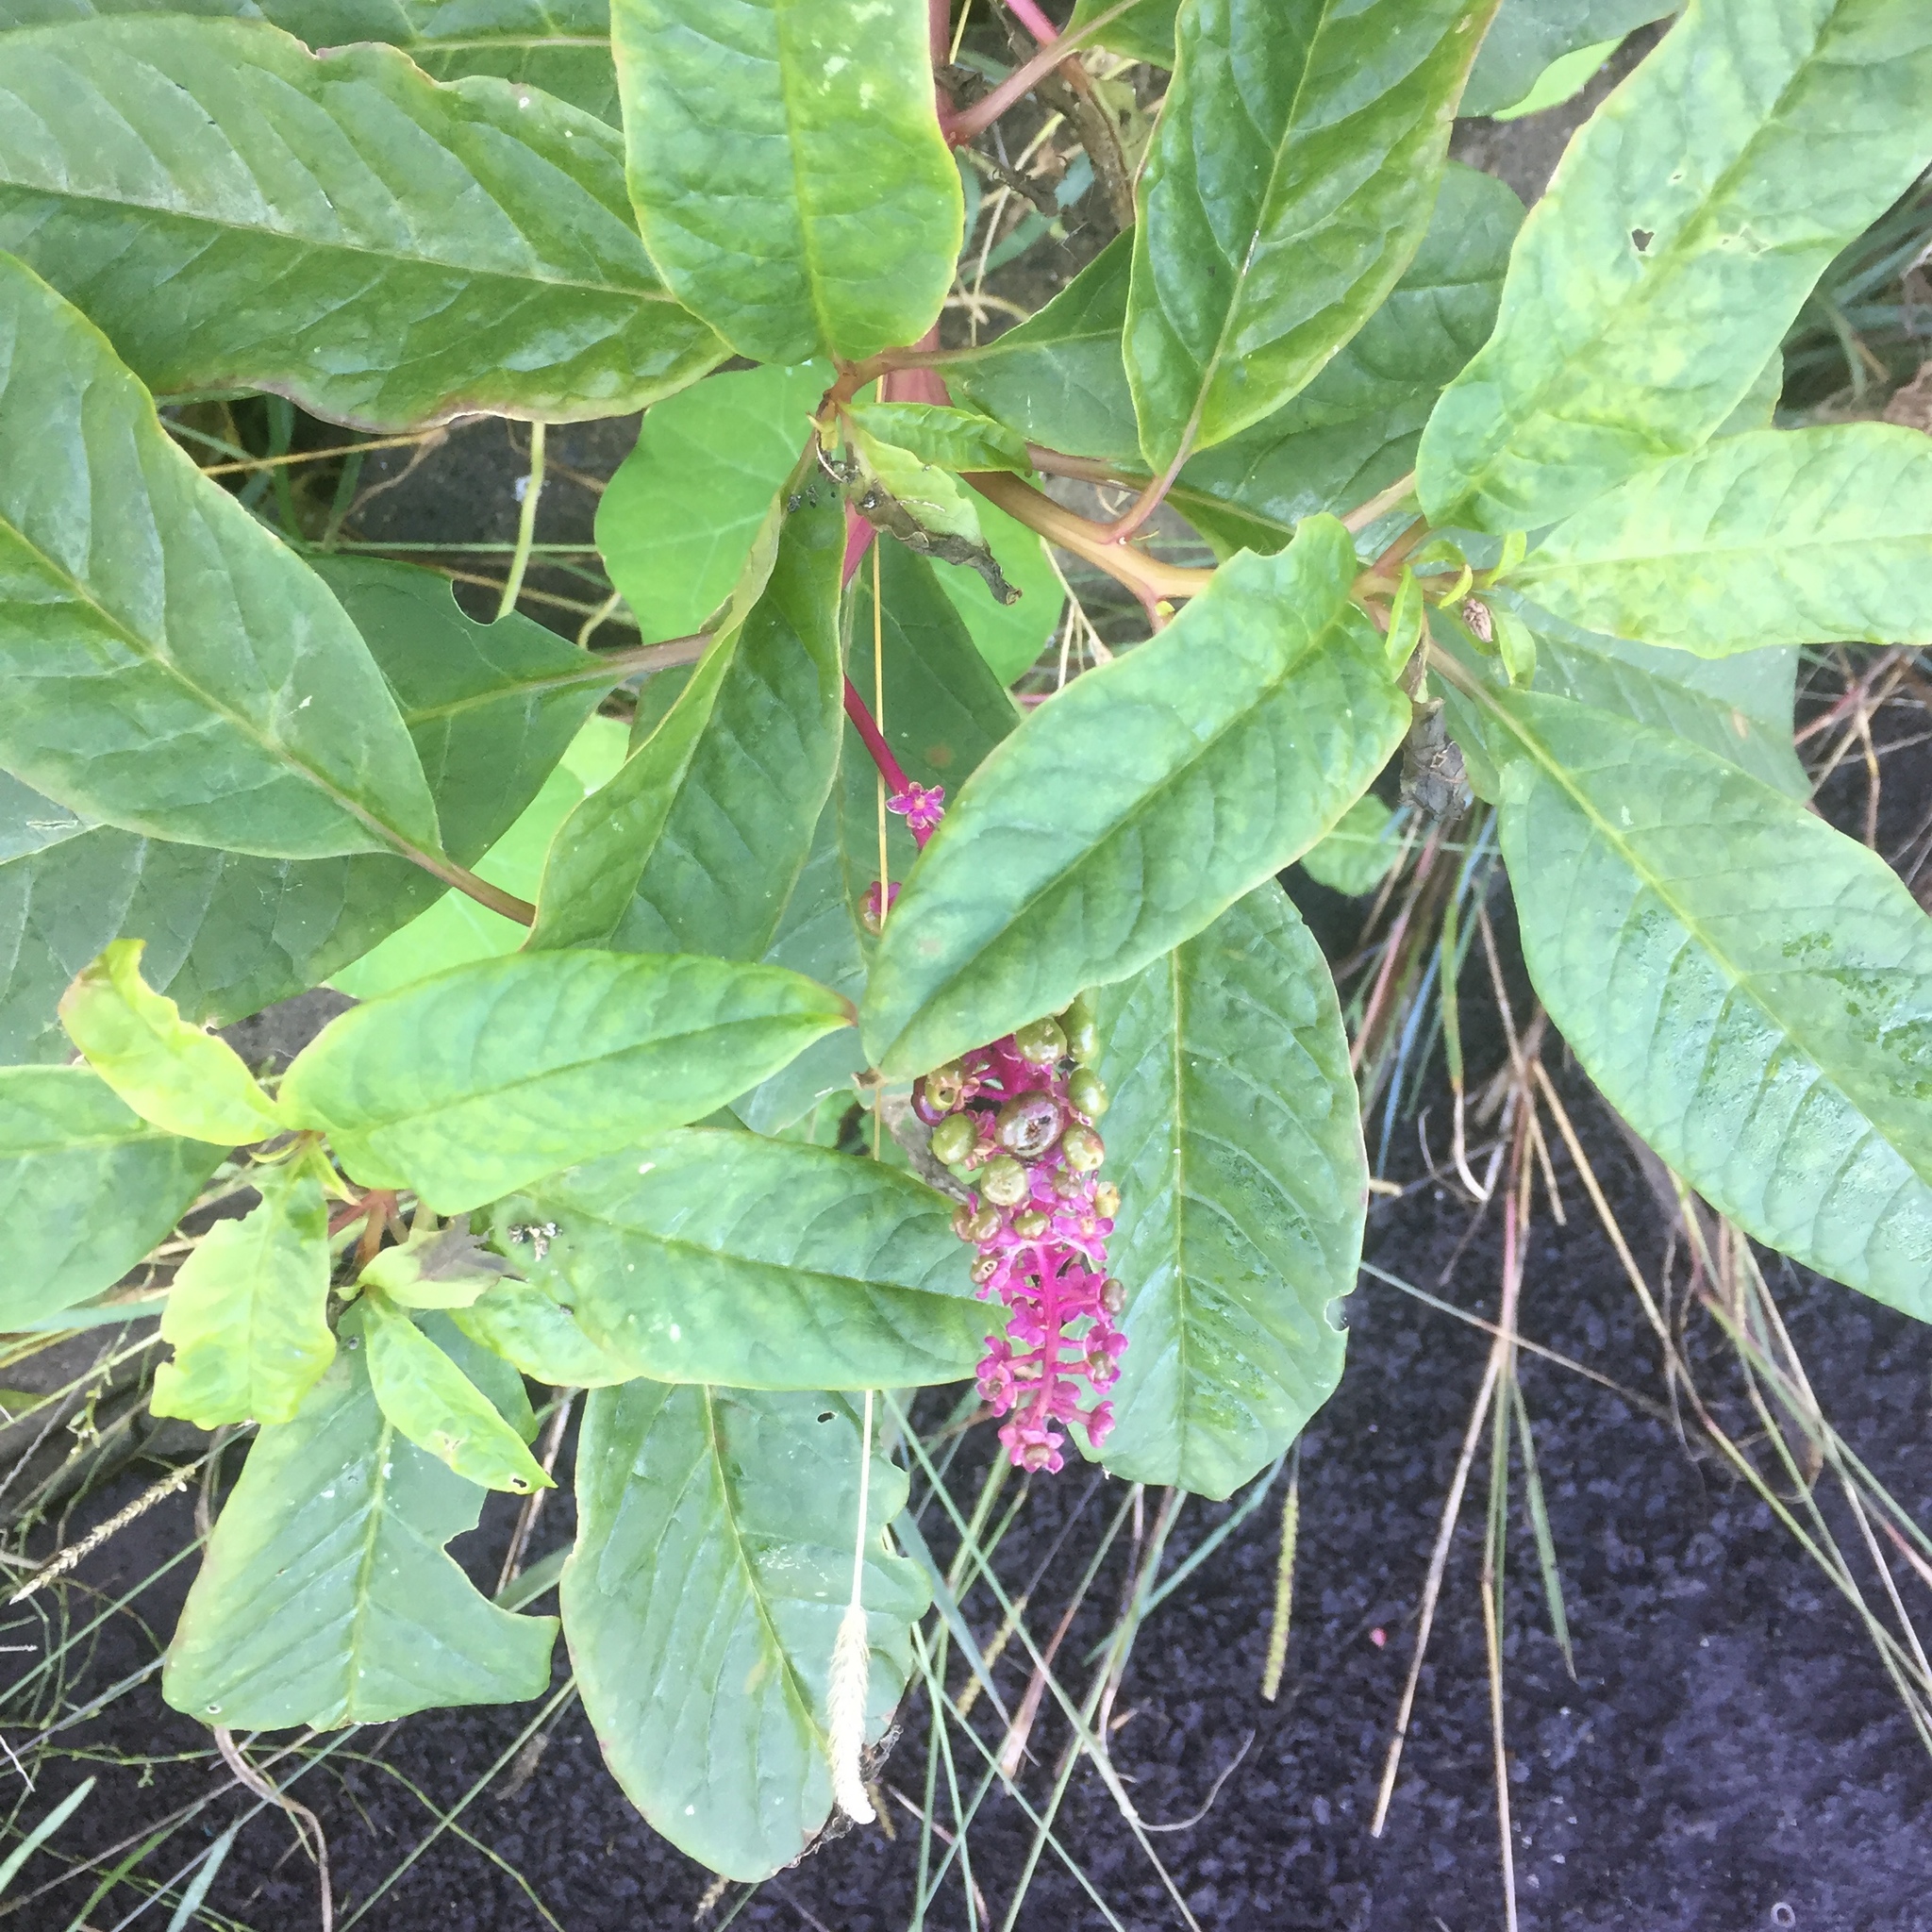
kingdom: Plantae
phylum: Tracheophyta
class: Magnoliopsida
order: Caryophyllales
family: Phytolaccaceae
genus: Phytolacca
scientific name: Phytolacca americana
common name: American pokeweed
